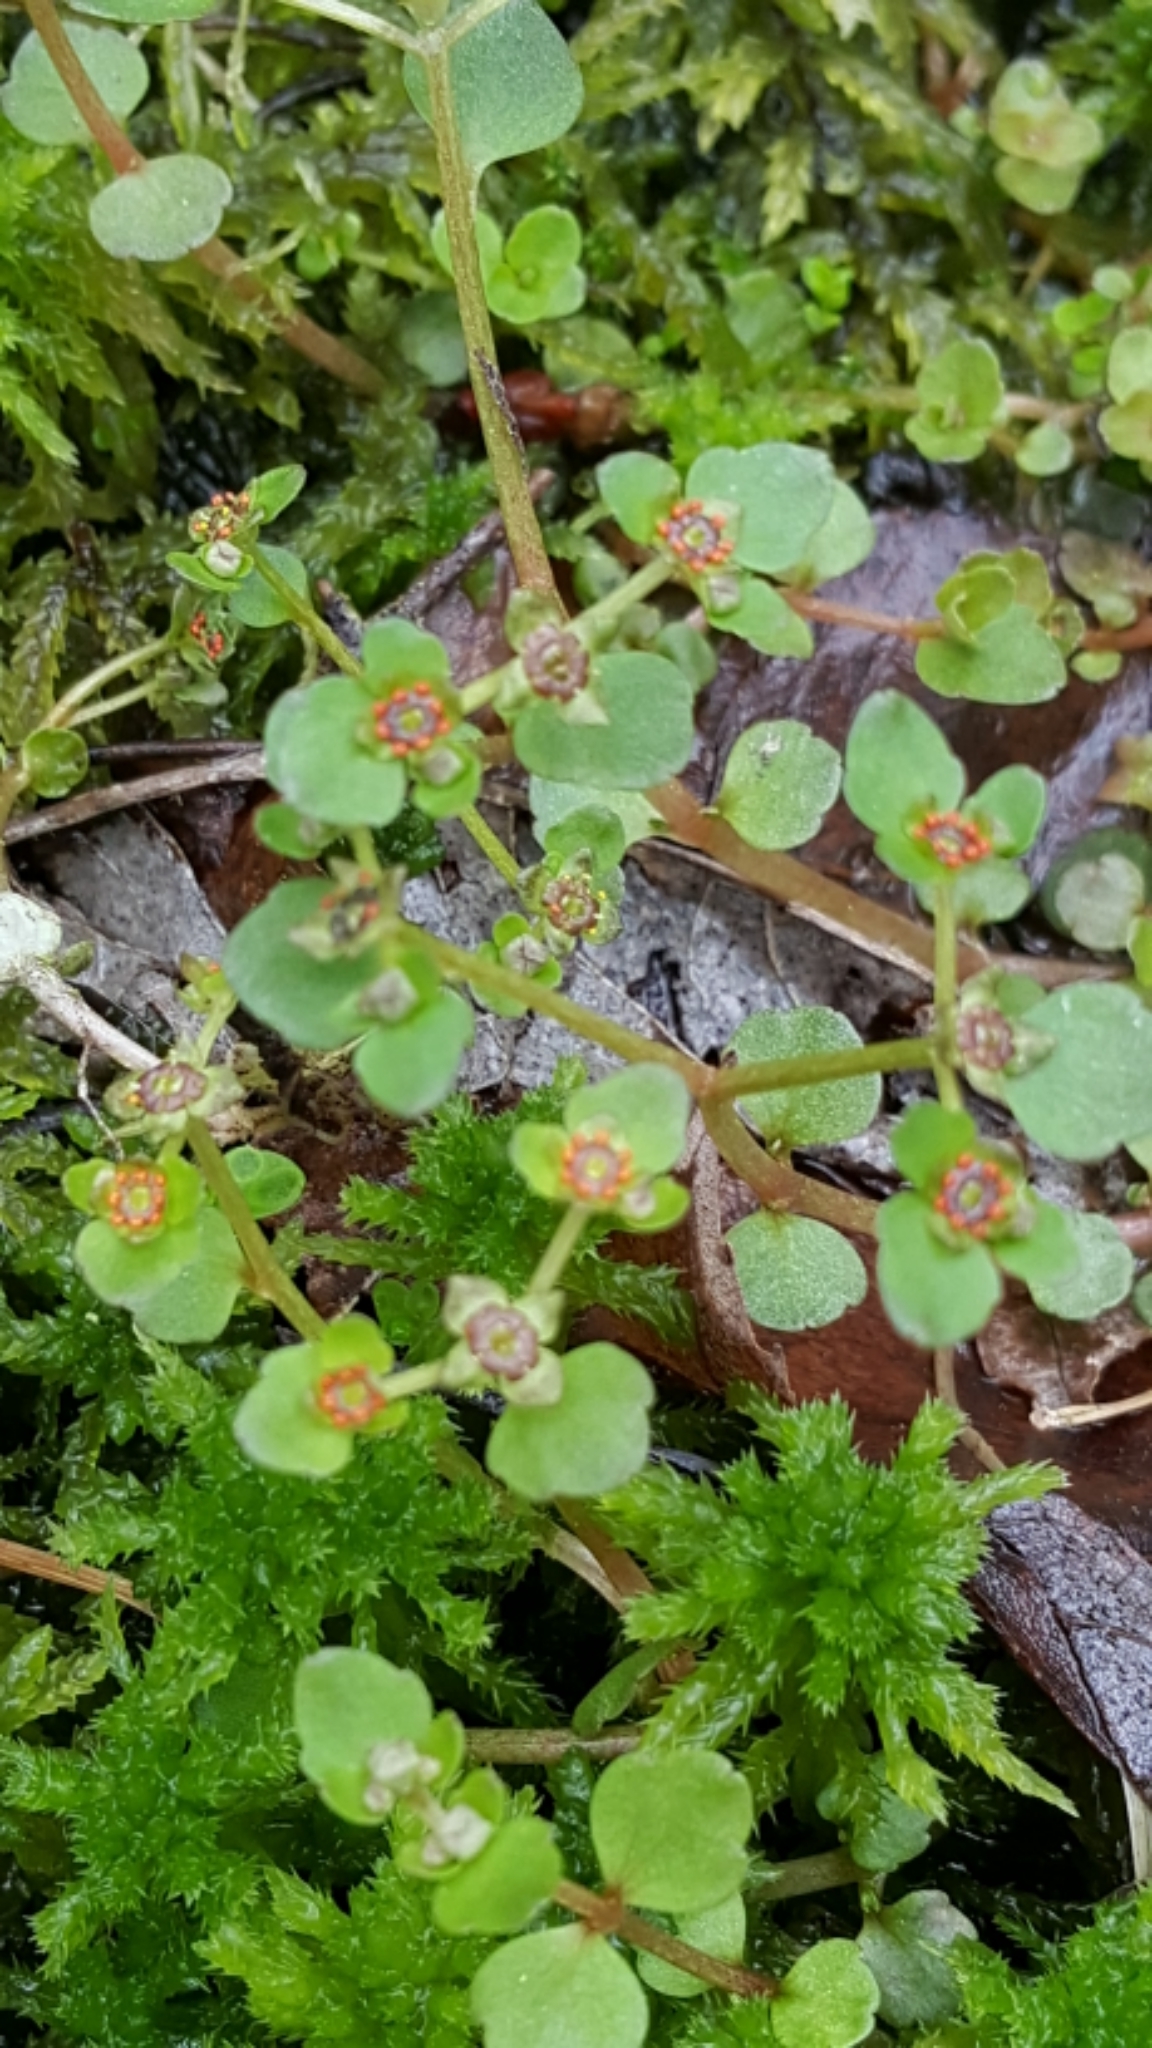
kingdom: Plantae
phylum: Tracheophyta
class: Magnoliopsida
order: Saxifragales
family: Saxifragaceae
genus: Chrysosplenium
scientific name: Chrysosplenium americanum
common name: American golden-saxifrage
